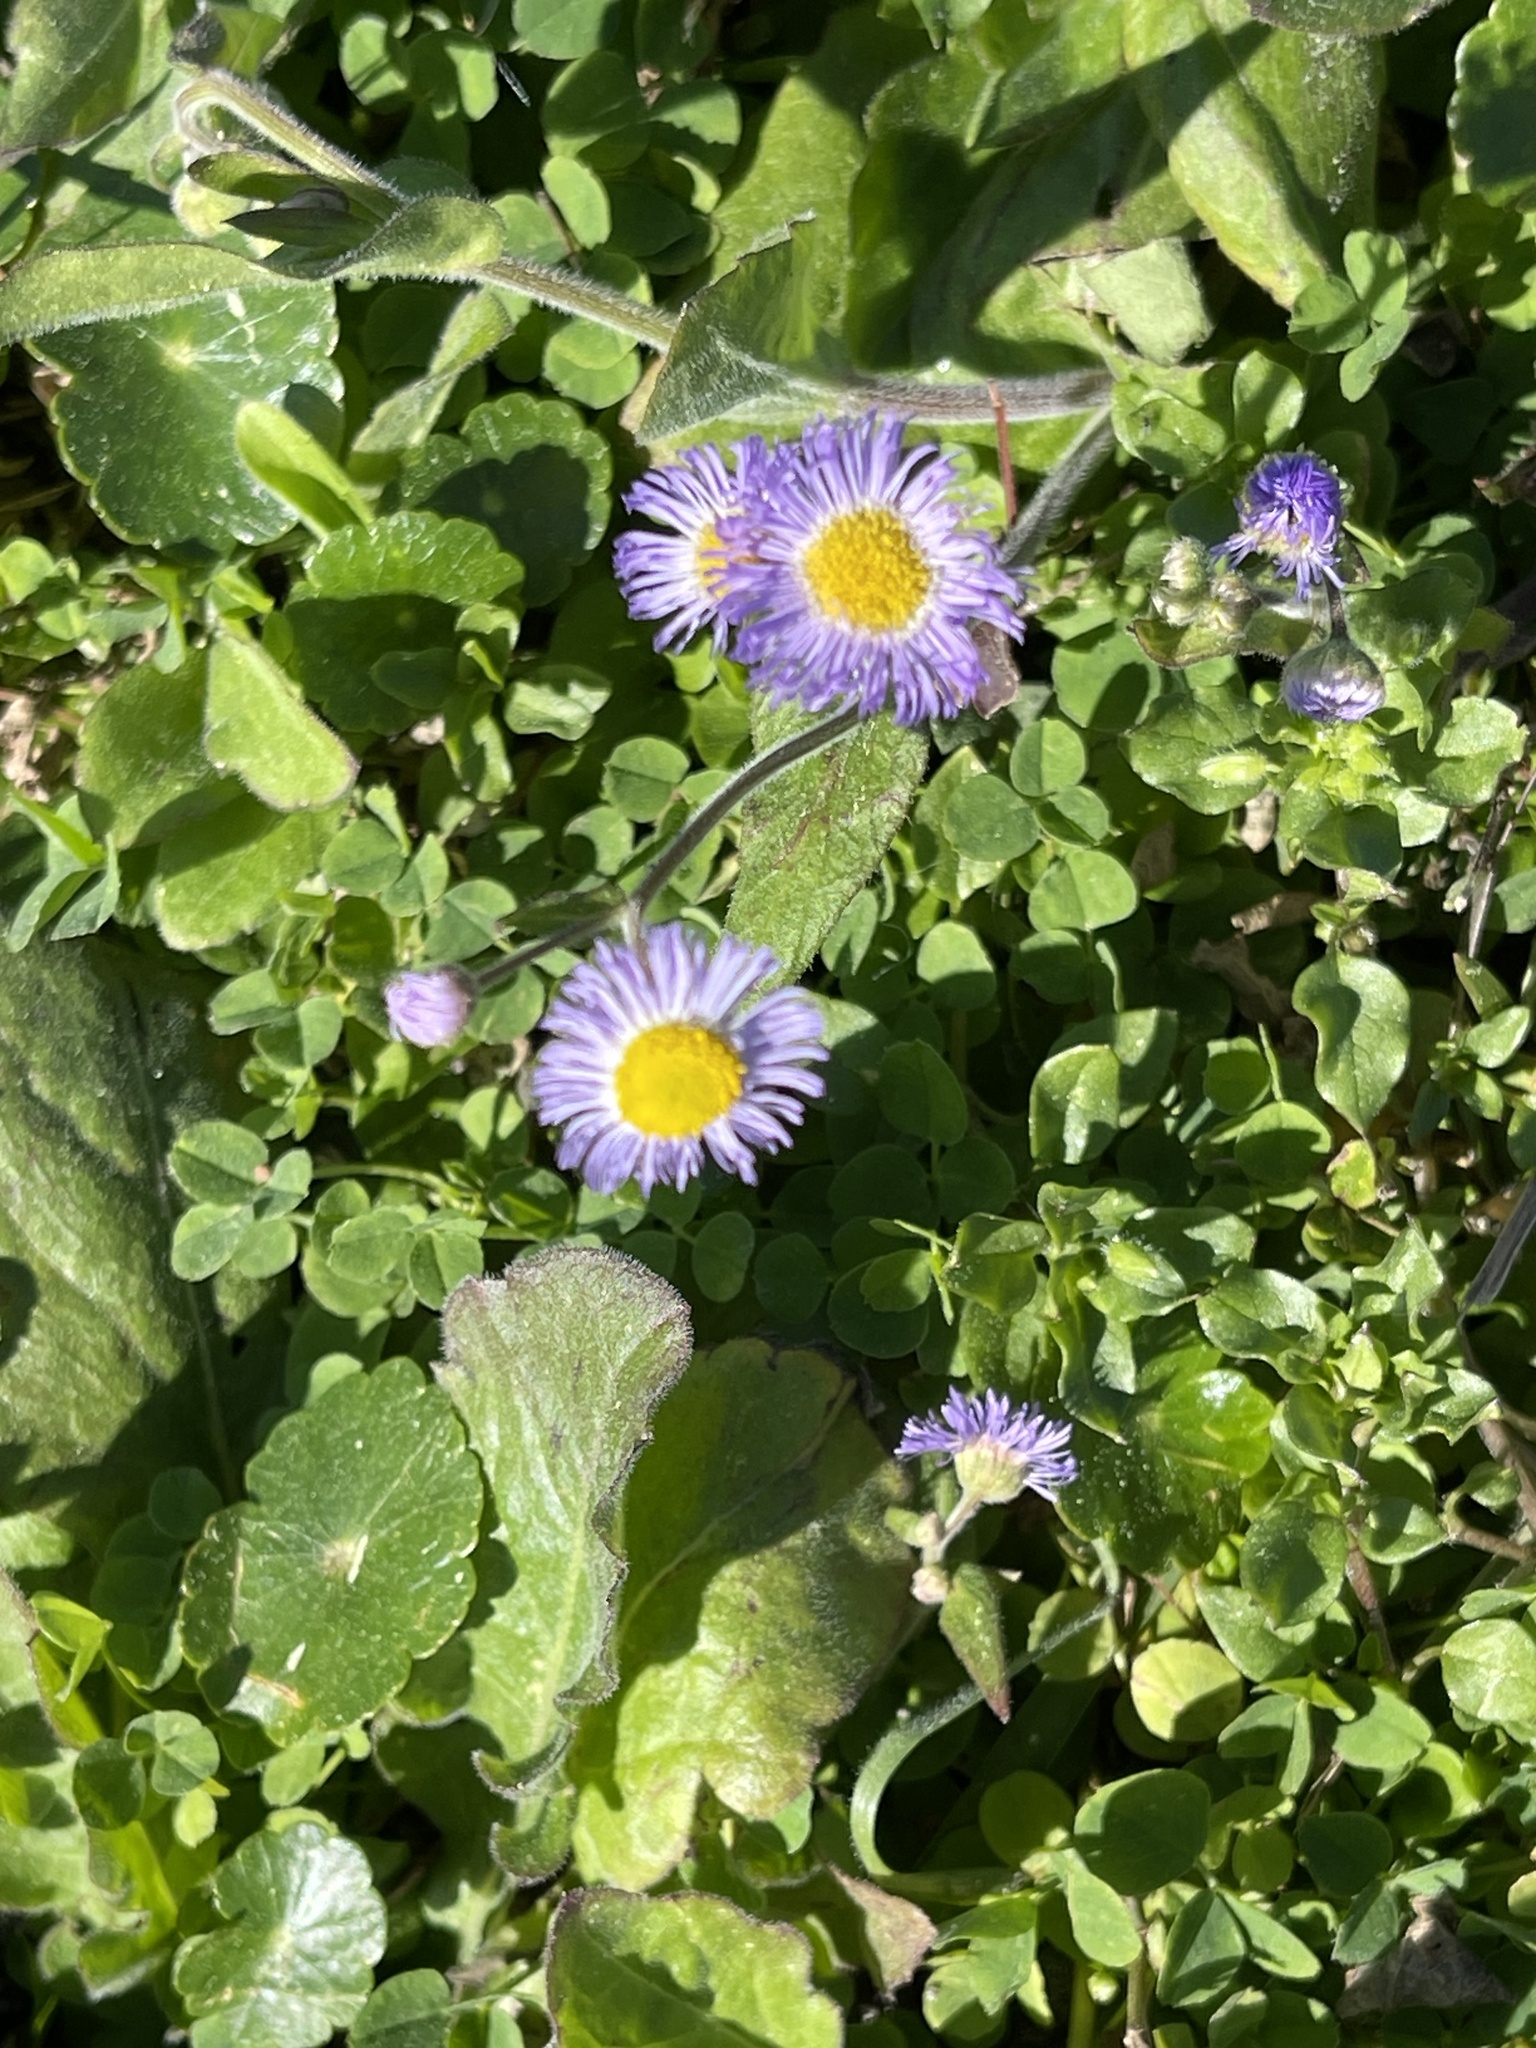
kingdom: Plantae
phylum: Tracheophyta
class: Magnoliopsida
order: Asterales
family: Asteraceae
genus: Erigeron
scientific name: Erigeron quercifolius
